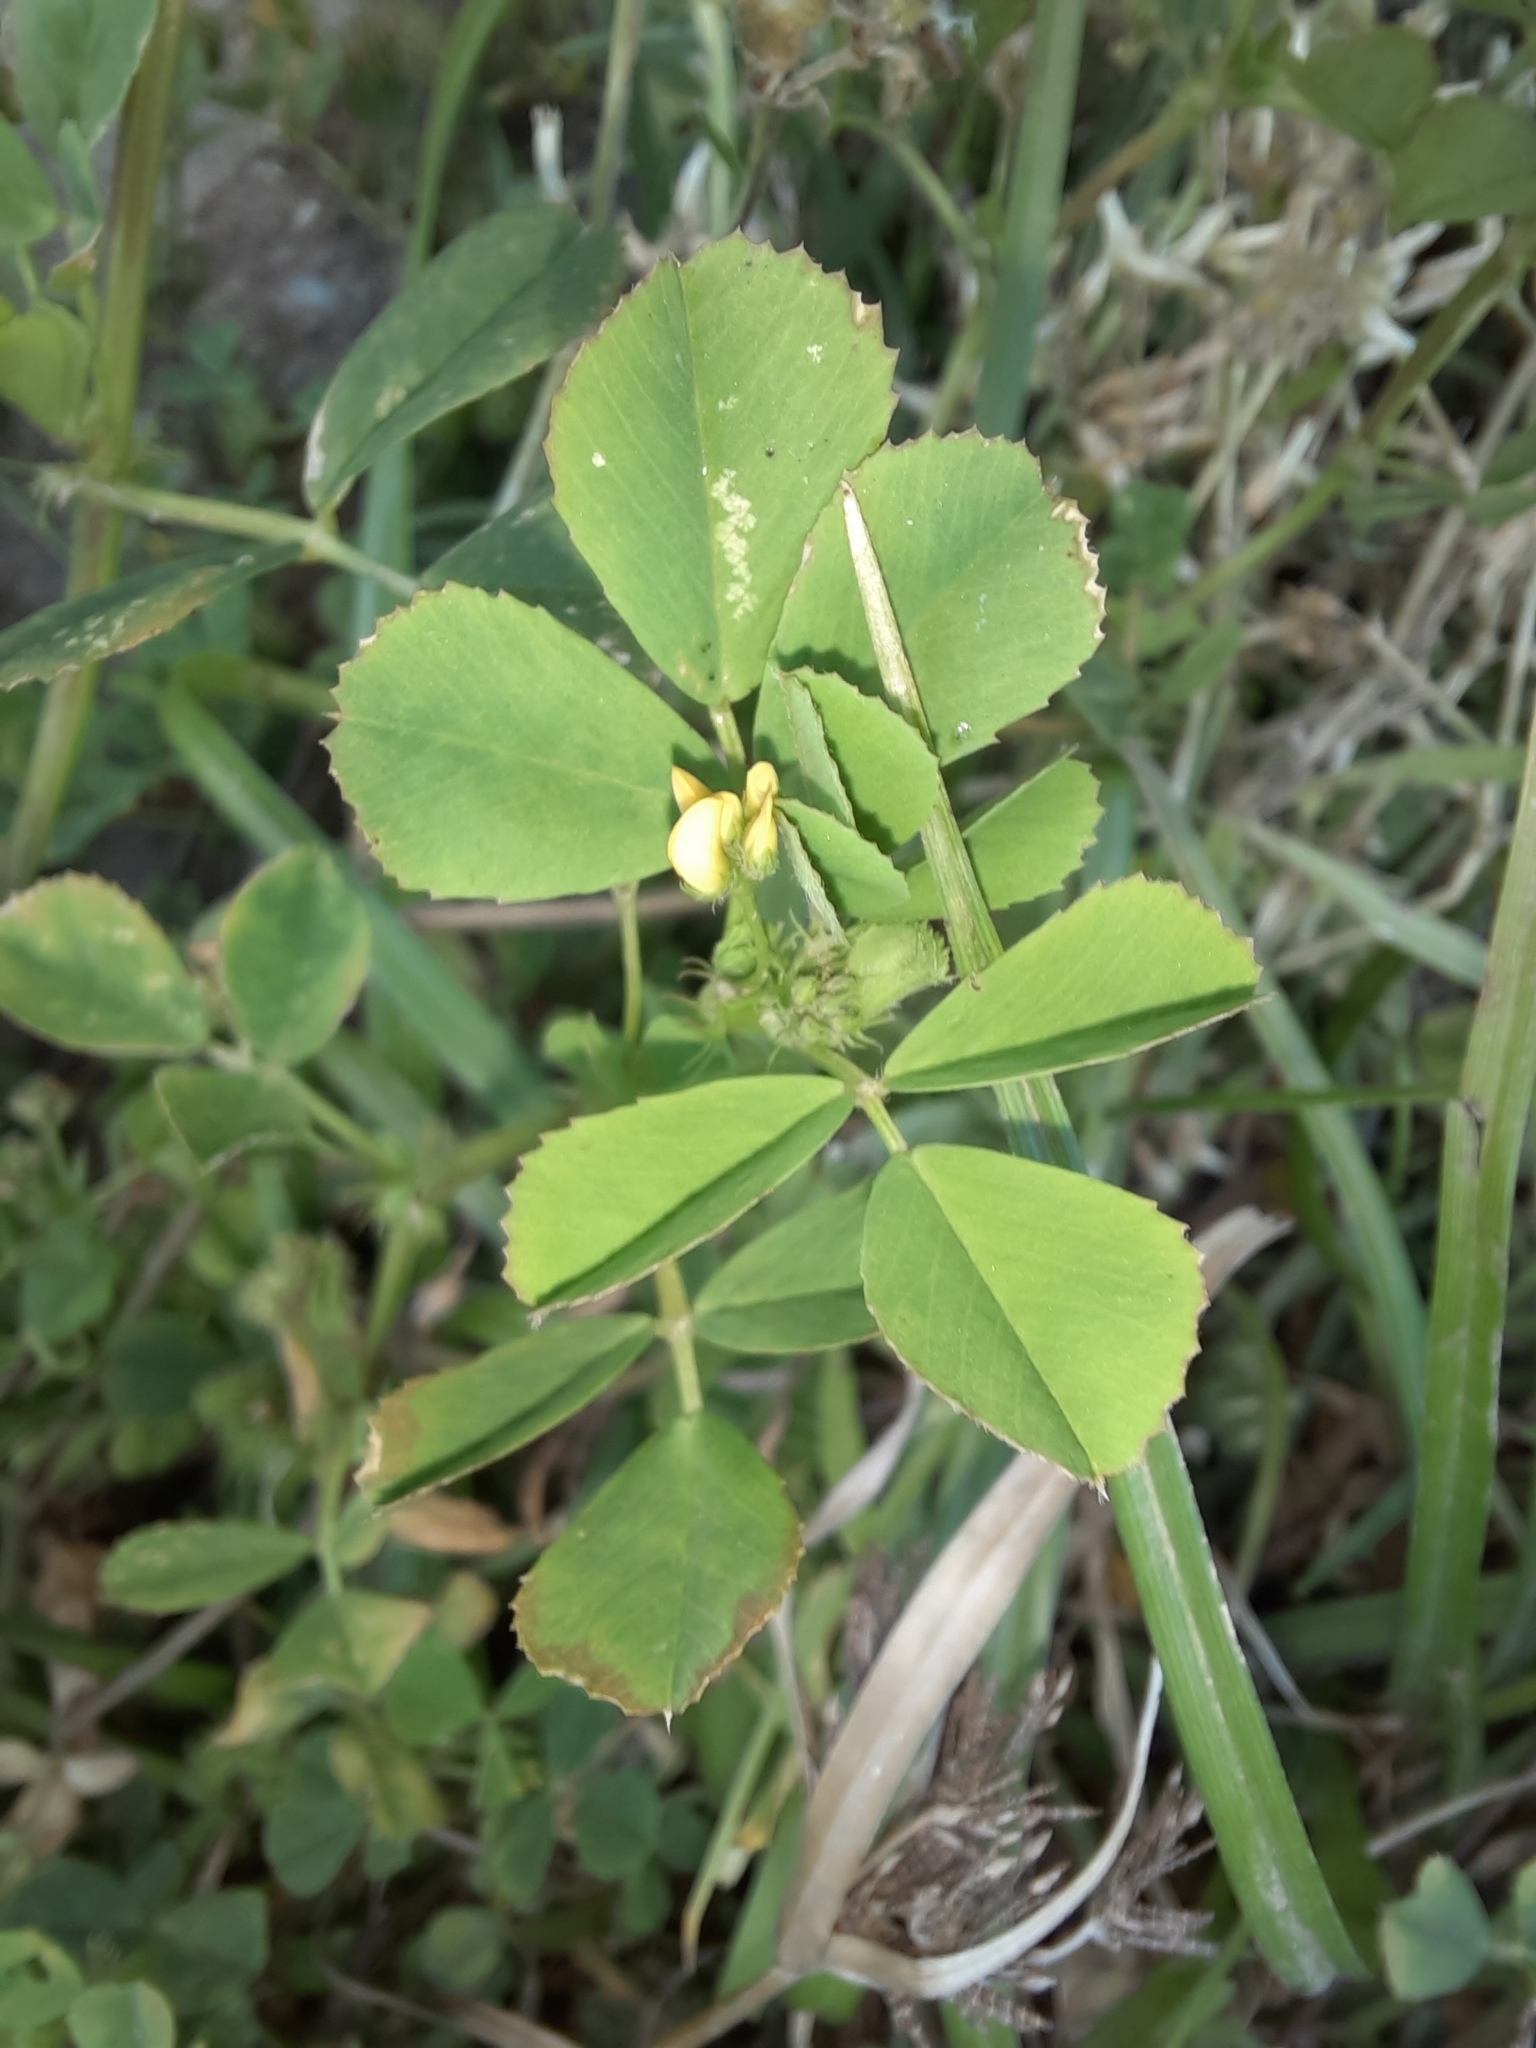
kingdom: Plantae
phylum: Tracheophyta
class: Magnoliopsida
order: Fabales
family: Fabaceae
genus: Medicago
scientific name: Medicago polymorpha
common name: Burclover
